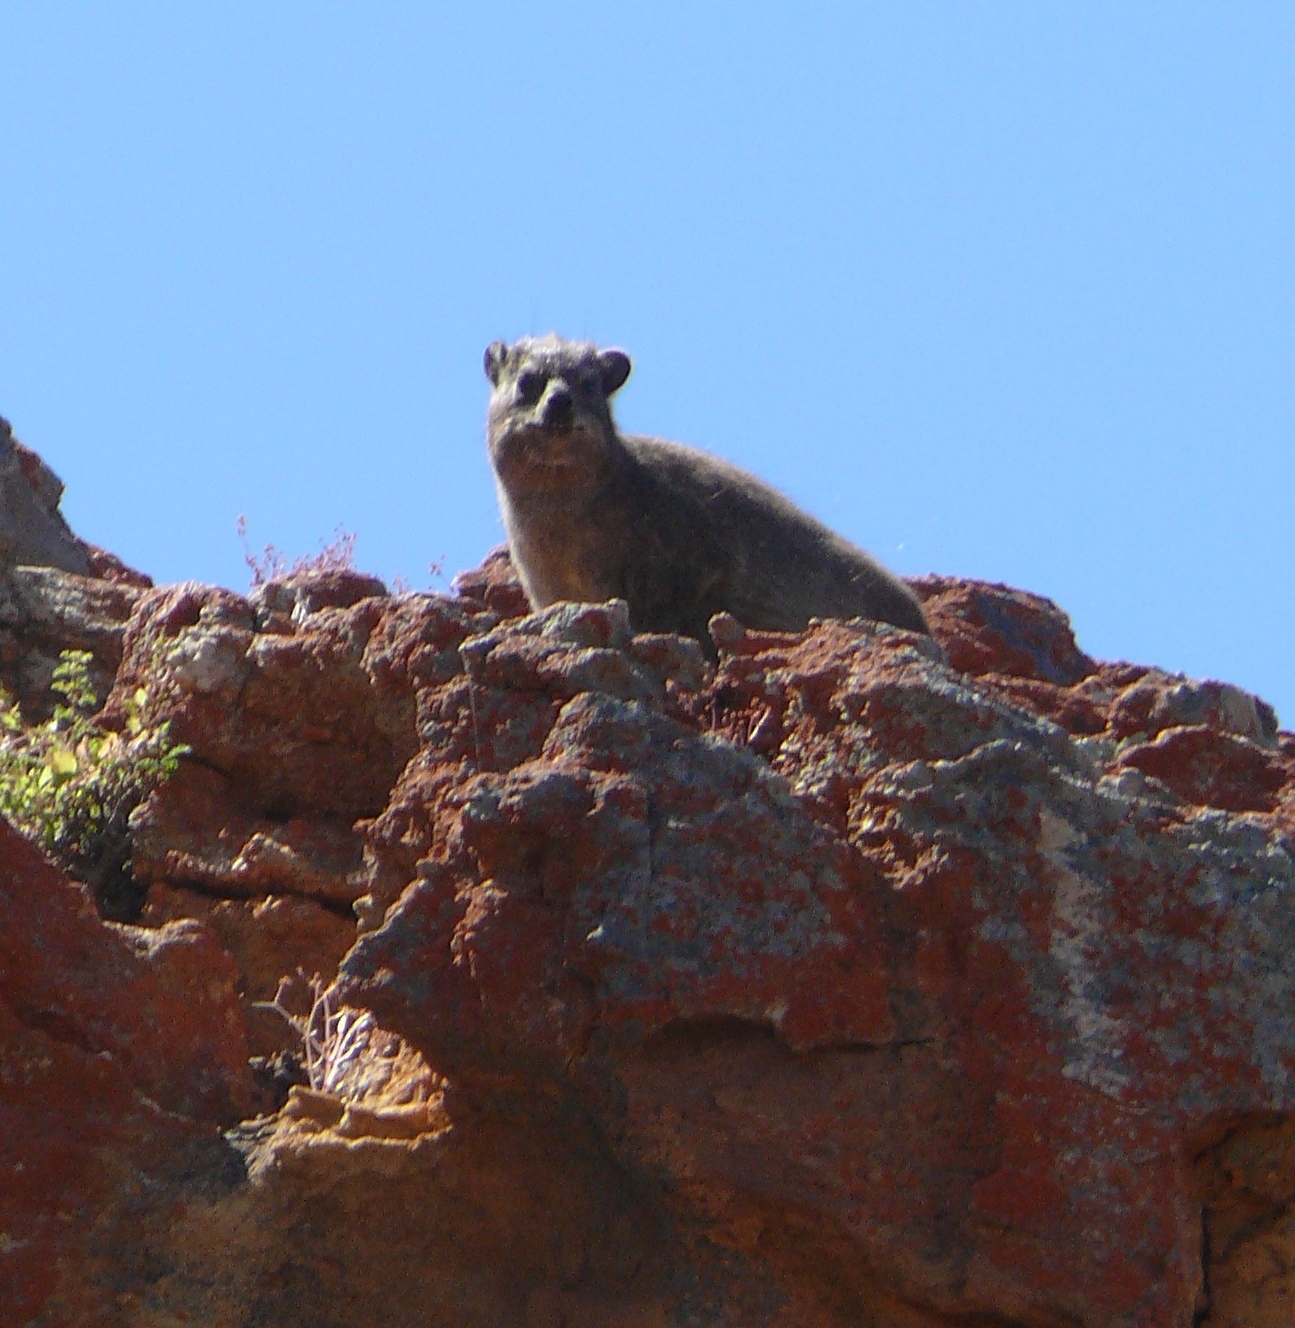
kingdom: Animalia
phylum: Chordata
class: Mammalia
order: Hyracoidea
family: Procaviidae
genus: Procavia
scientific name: Procavia capensis
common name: Rock hyrax
